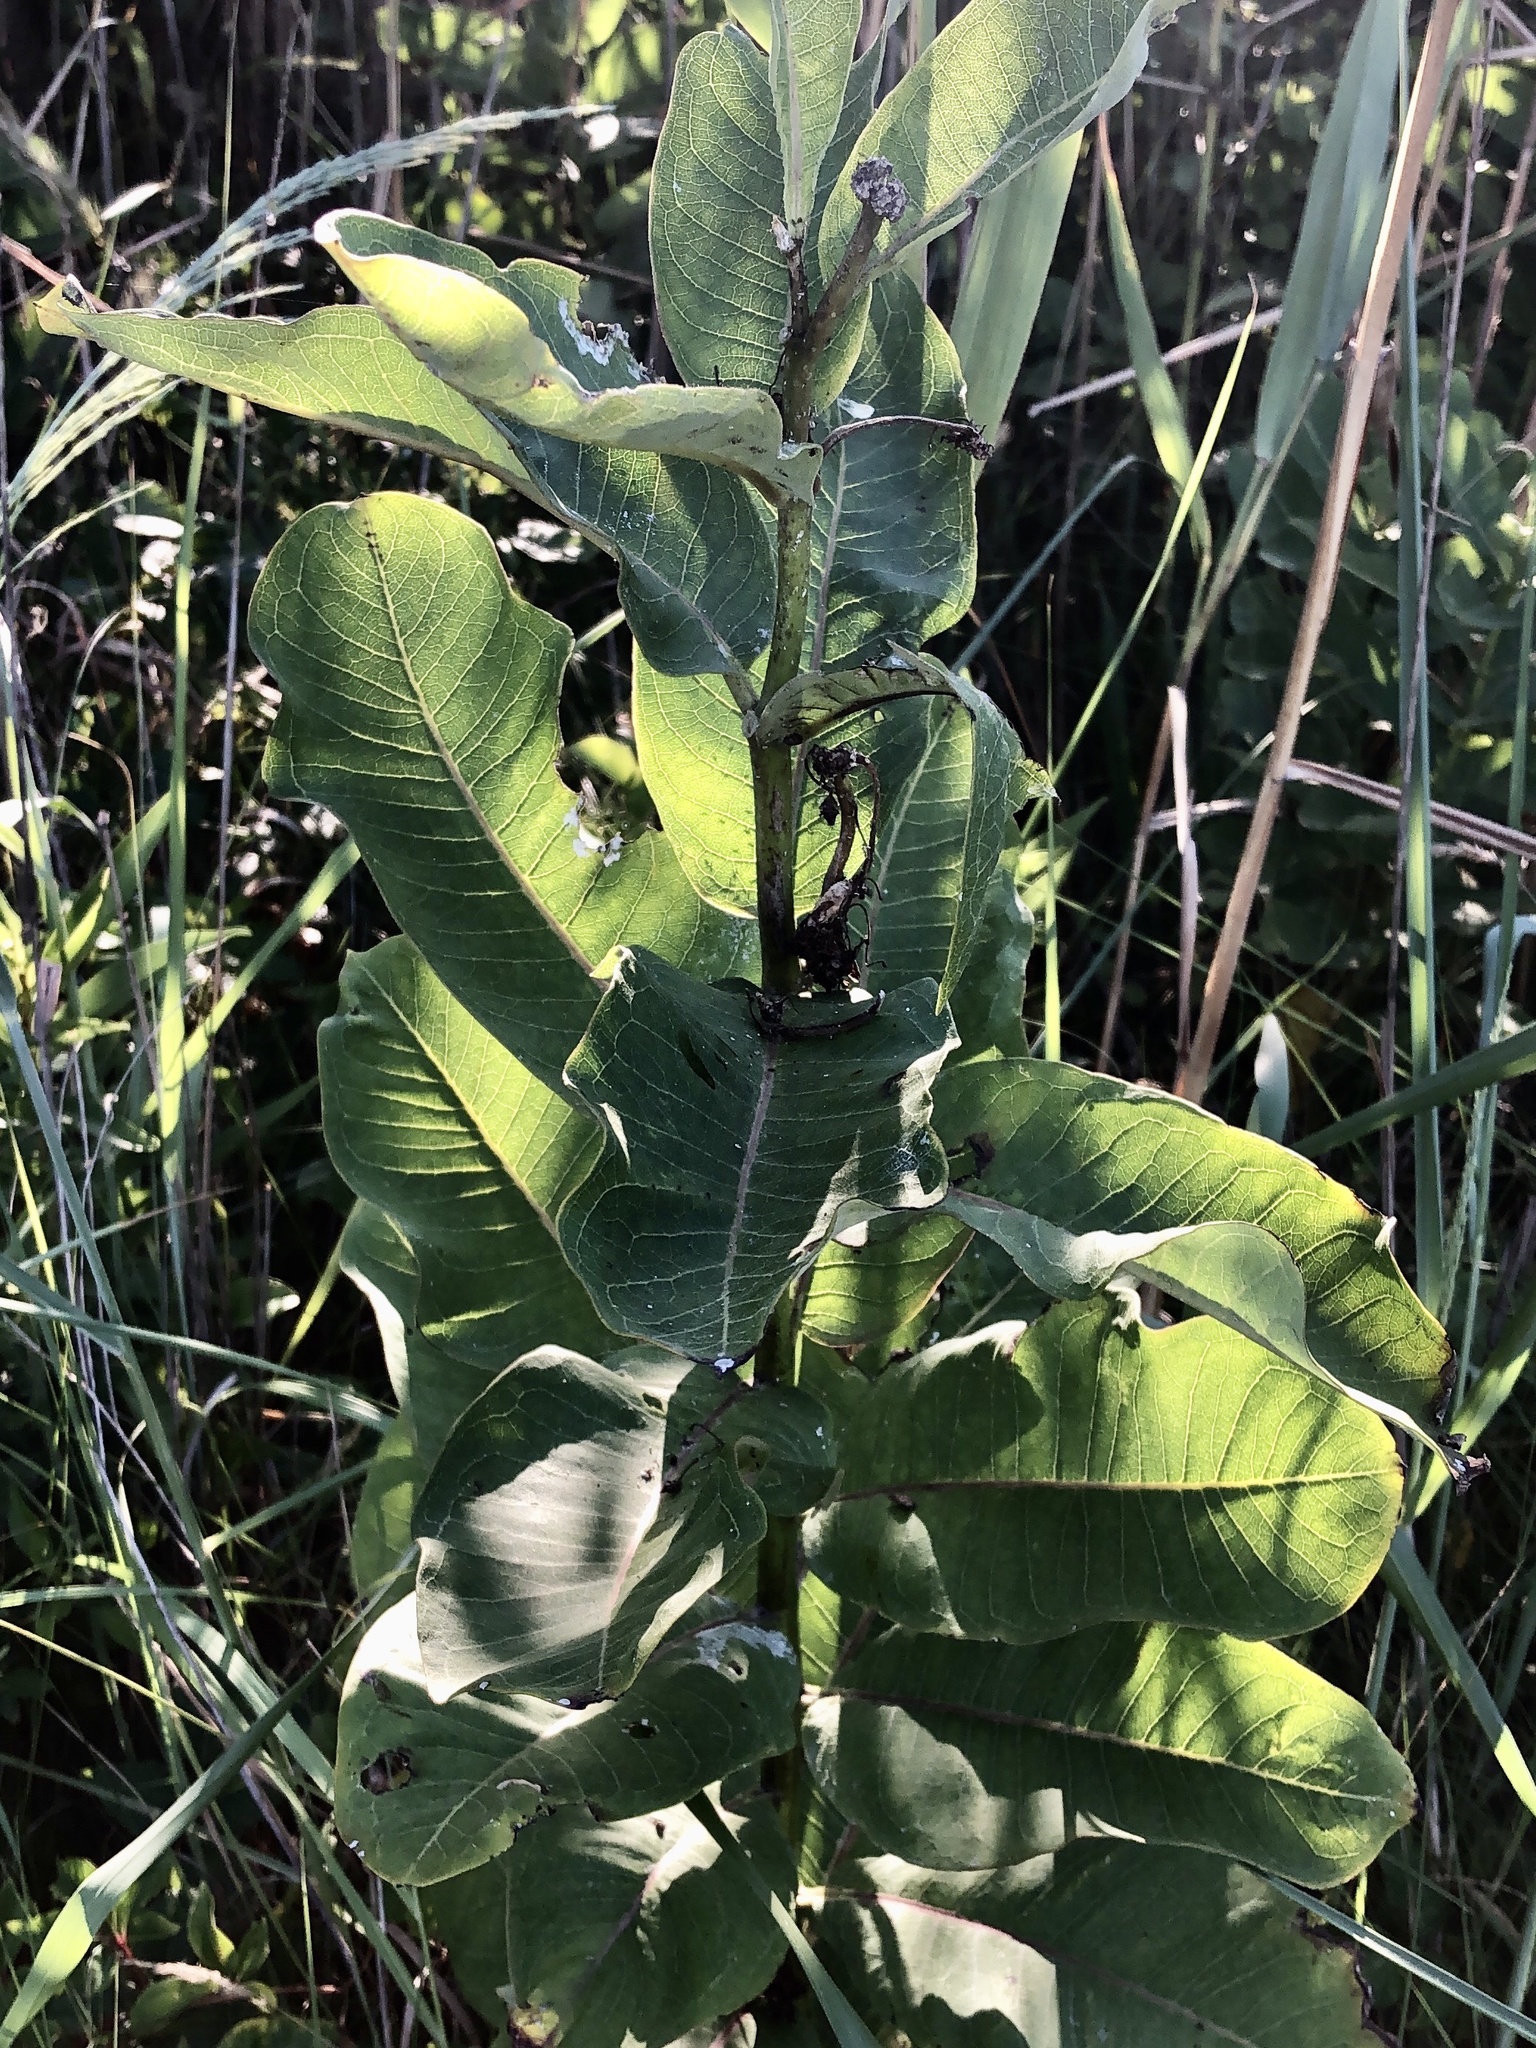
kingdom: Plantae
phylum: Tracheophyta
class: Magnoliopsida
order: Gentianales
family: Apocynaceae
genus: Asclepias
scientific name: Asclepias syriaca
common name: Common milkweed
